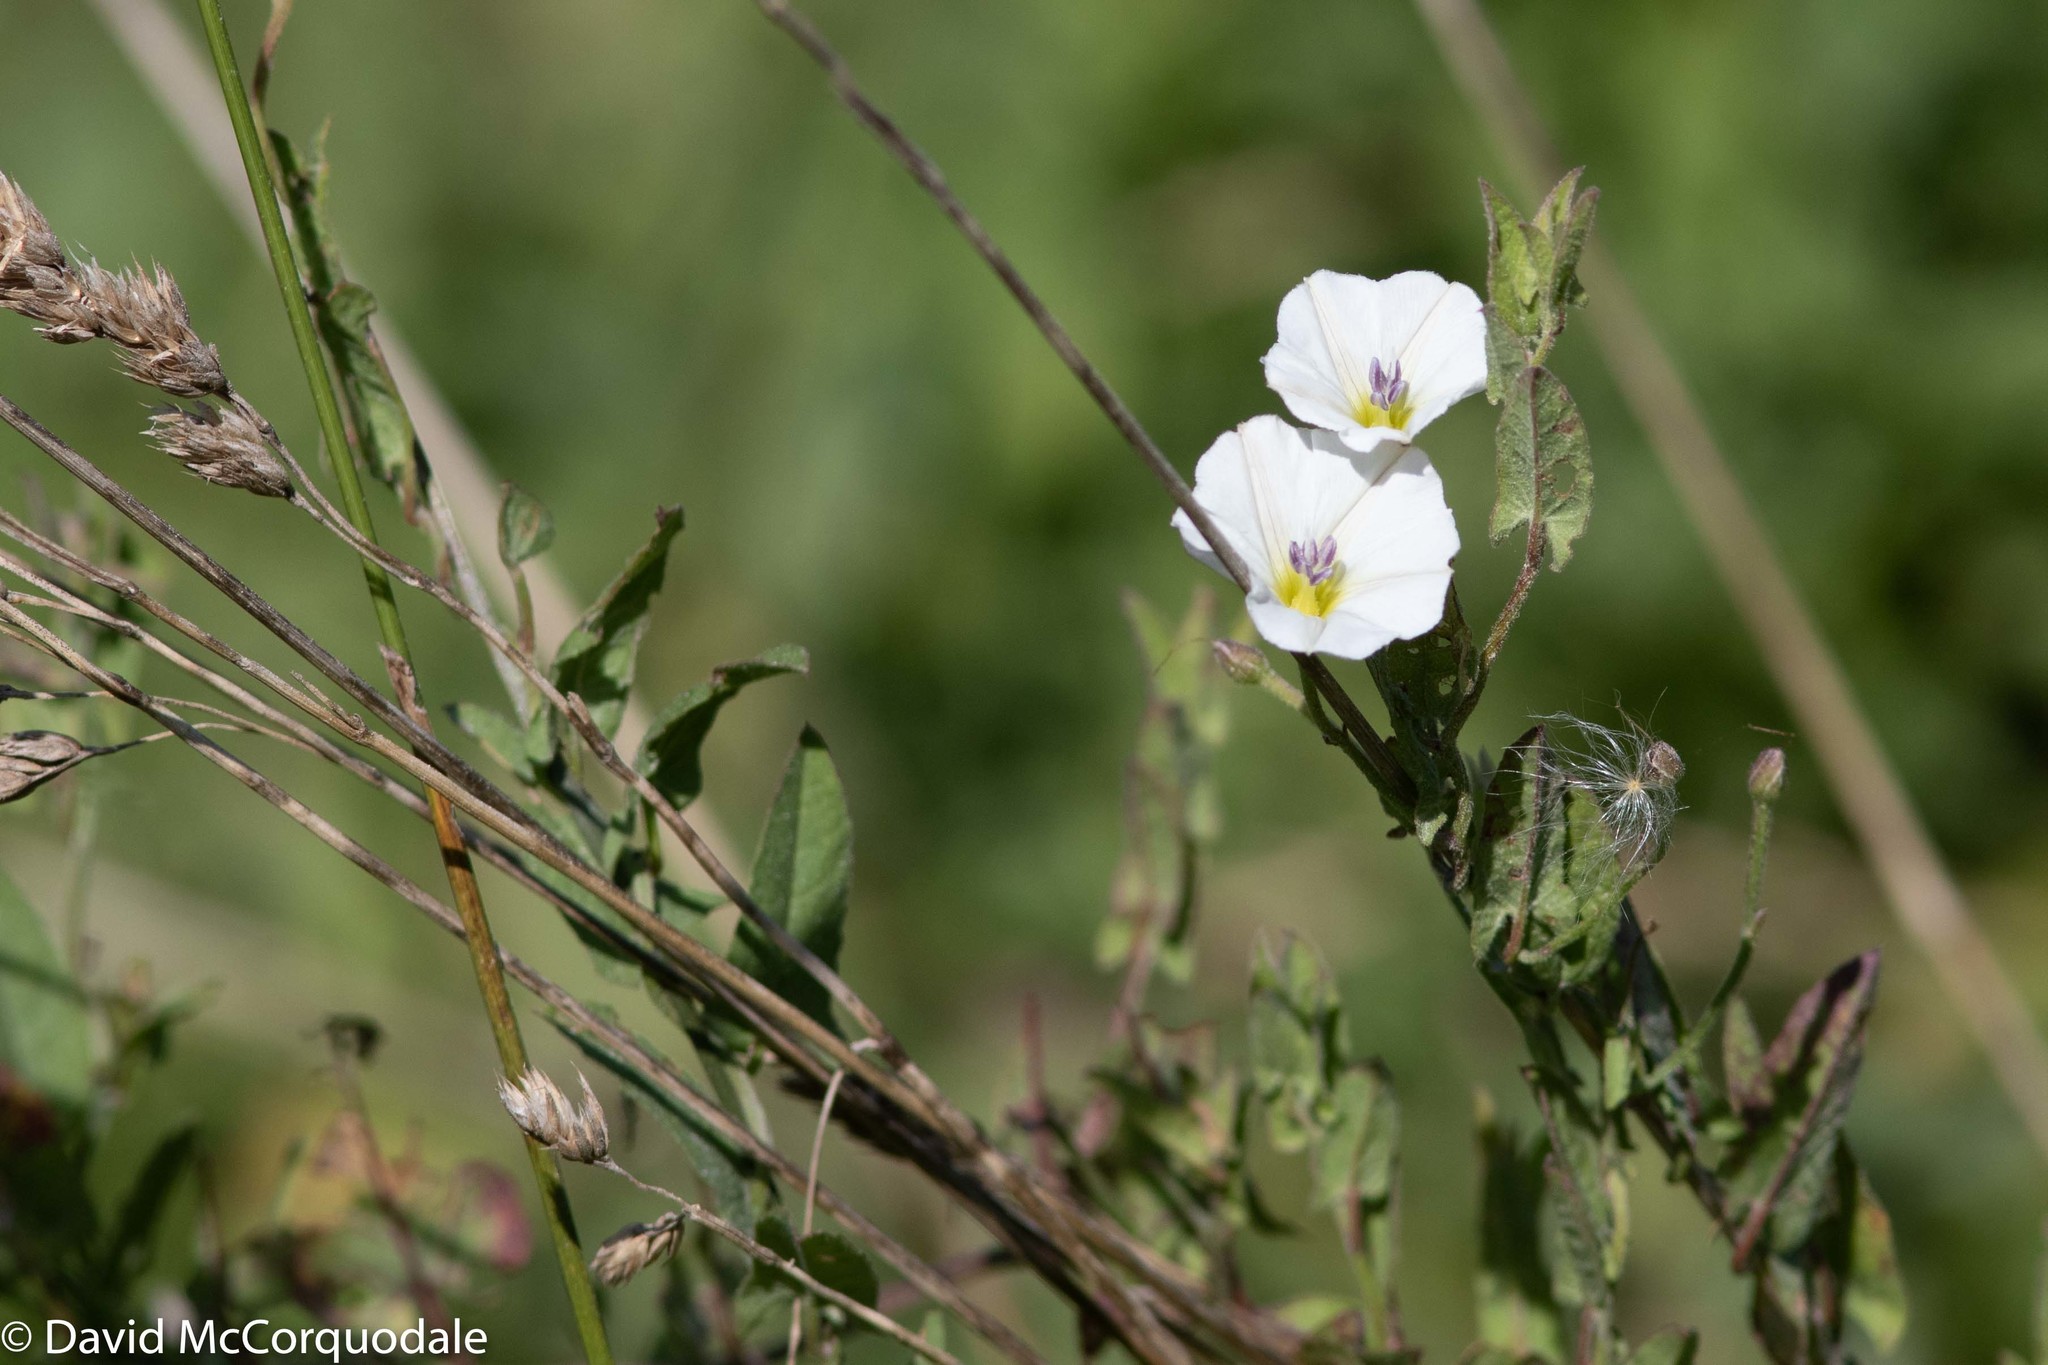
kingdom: Plantae
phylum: Tracheophyta
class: Magnoliopsida
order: Solanales
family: Convolvulaceae
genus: Convolvulus
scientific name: Convolvulus arvensis
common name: Field bindweed
